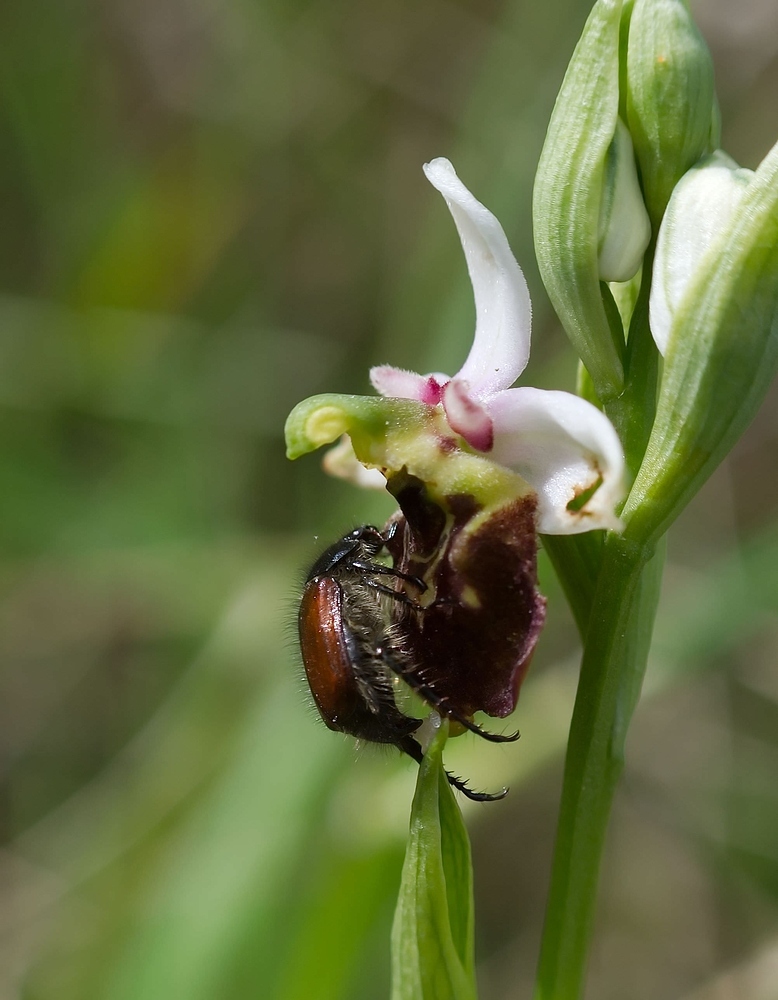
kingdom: Animalia
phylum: Arthropoda
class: Insecta
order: Coleoptera
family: Scarabaeidae
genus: Phyllopertha
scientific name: Phyllopertha horticola
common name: Garden chafer
